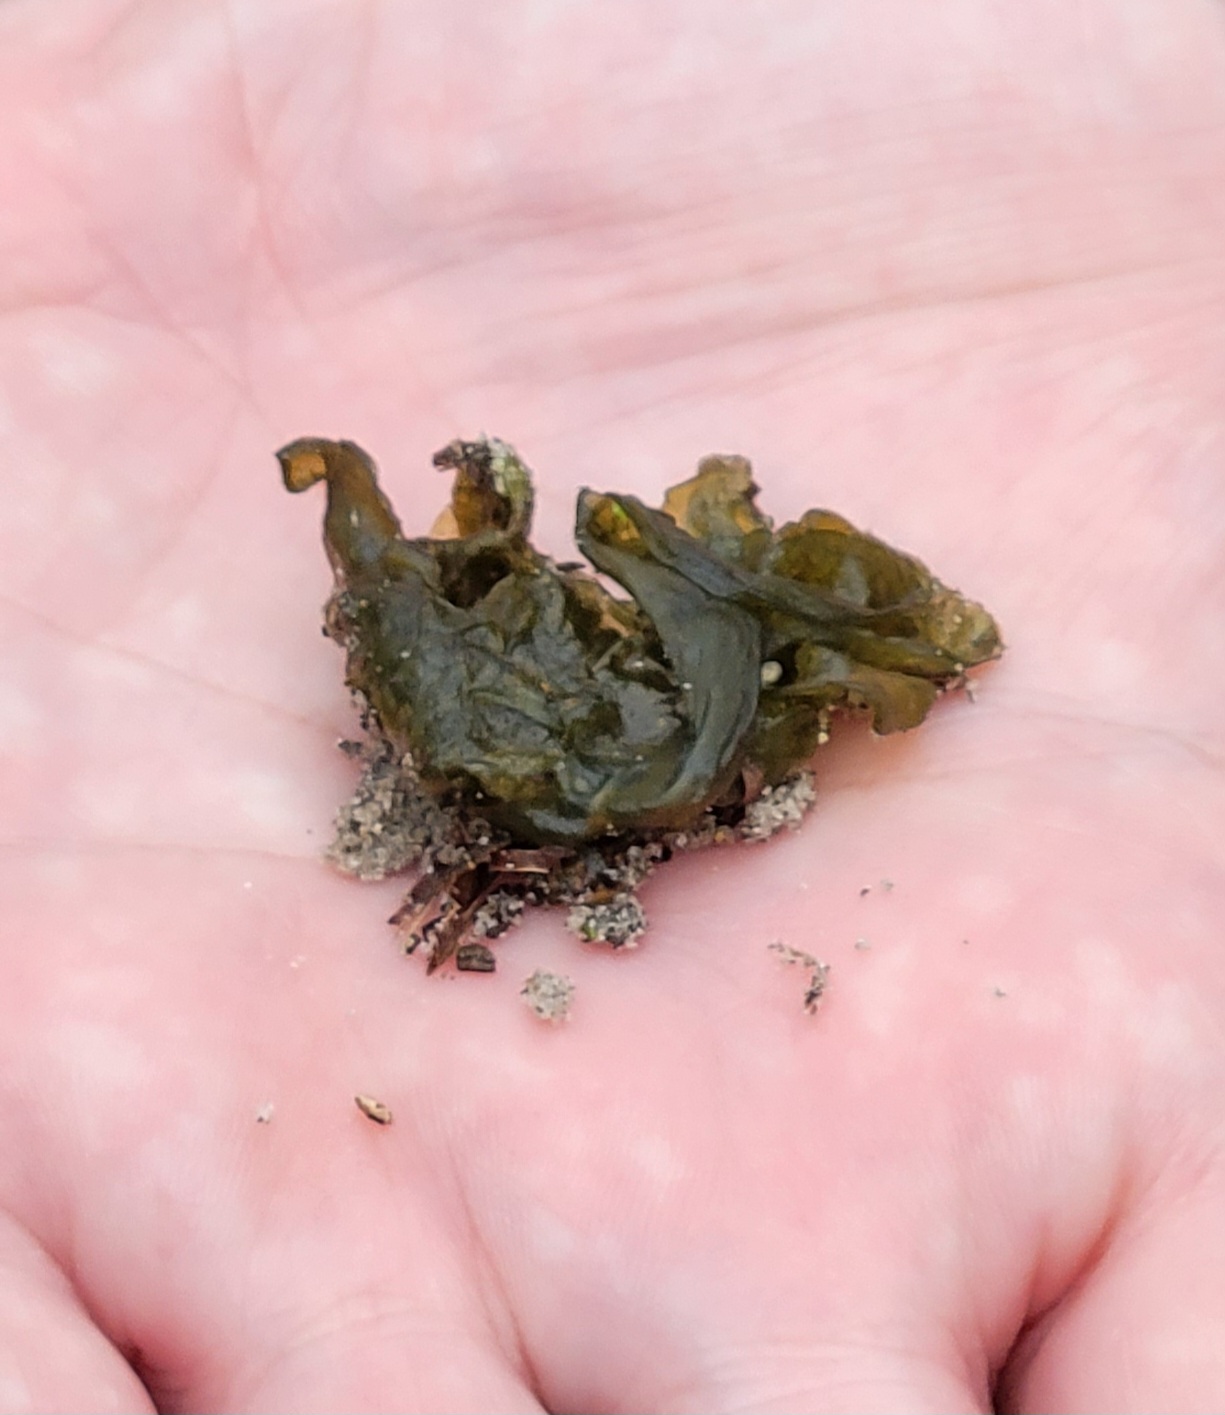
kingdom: Bacteria
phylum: Cyanobacteria
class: Cyanobacteriia
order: Cyanobacteriales
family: Nostocaceae
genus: Nostoc
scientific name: Nostoc commune
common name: Star jelly
